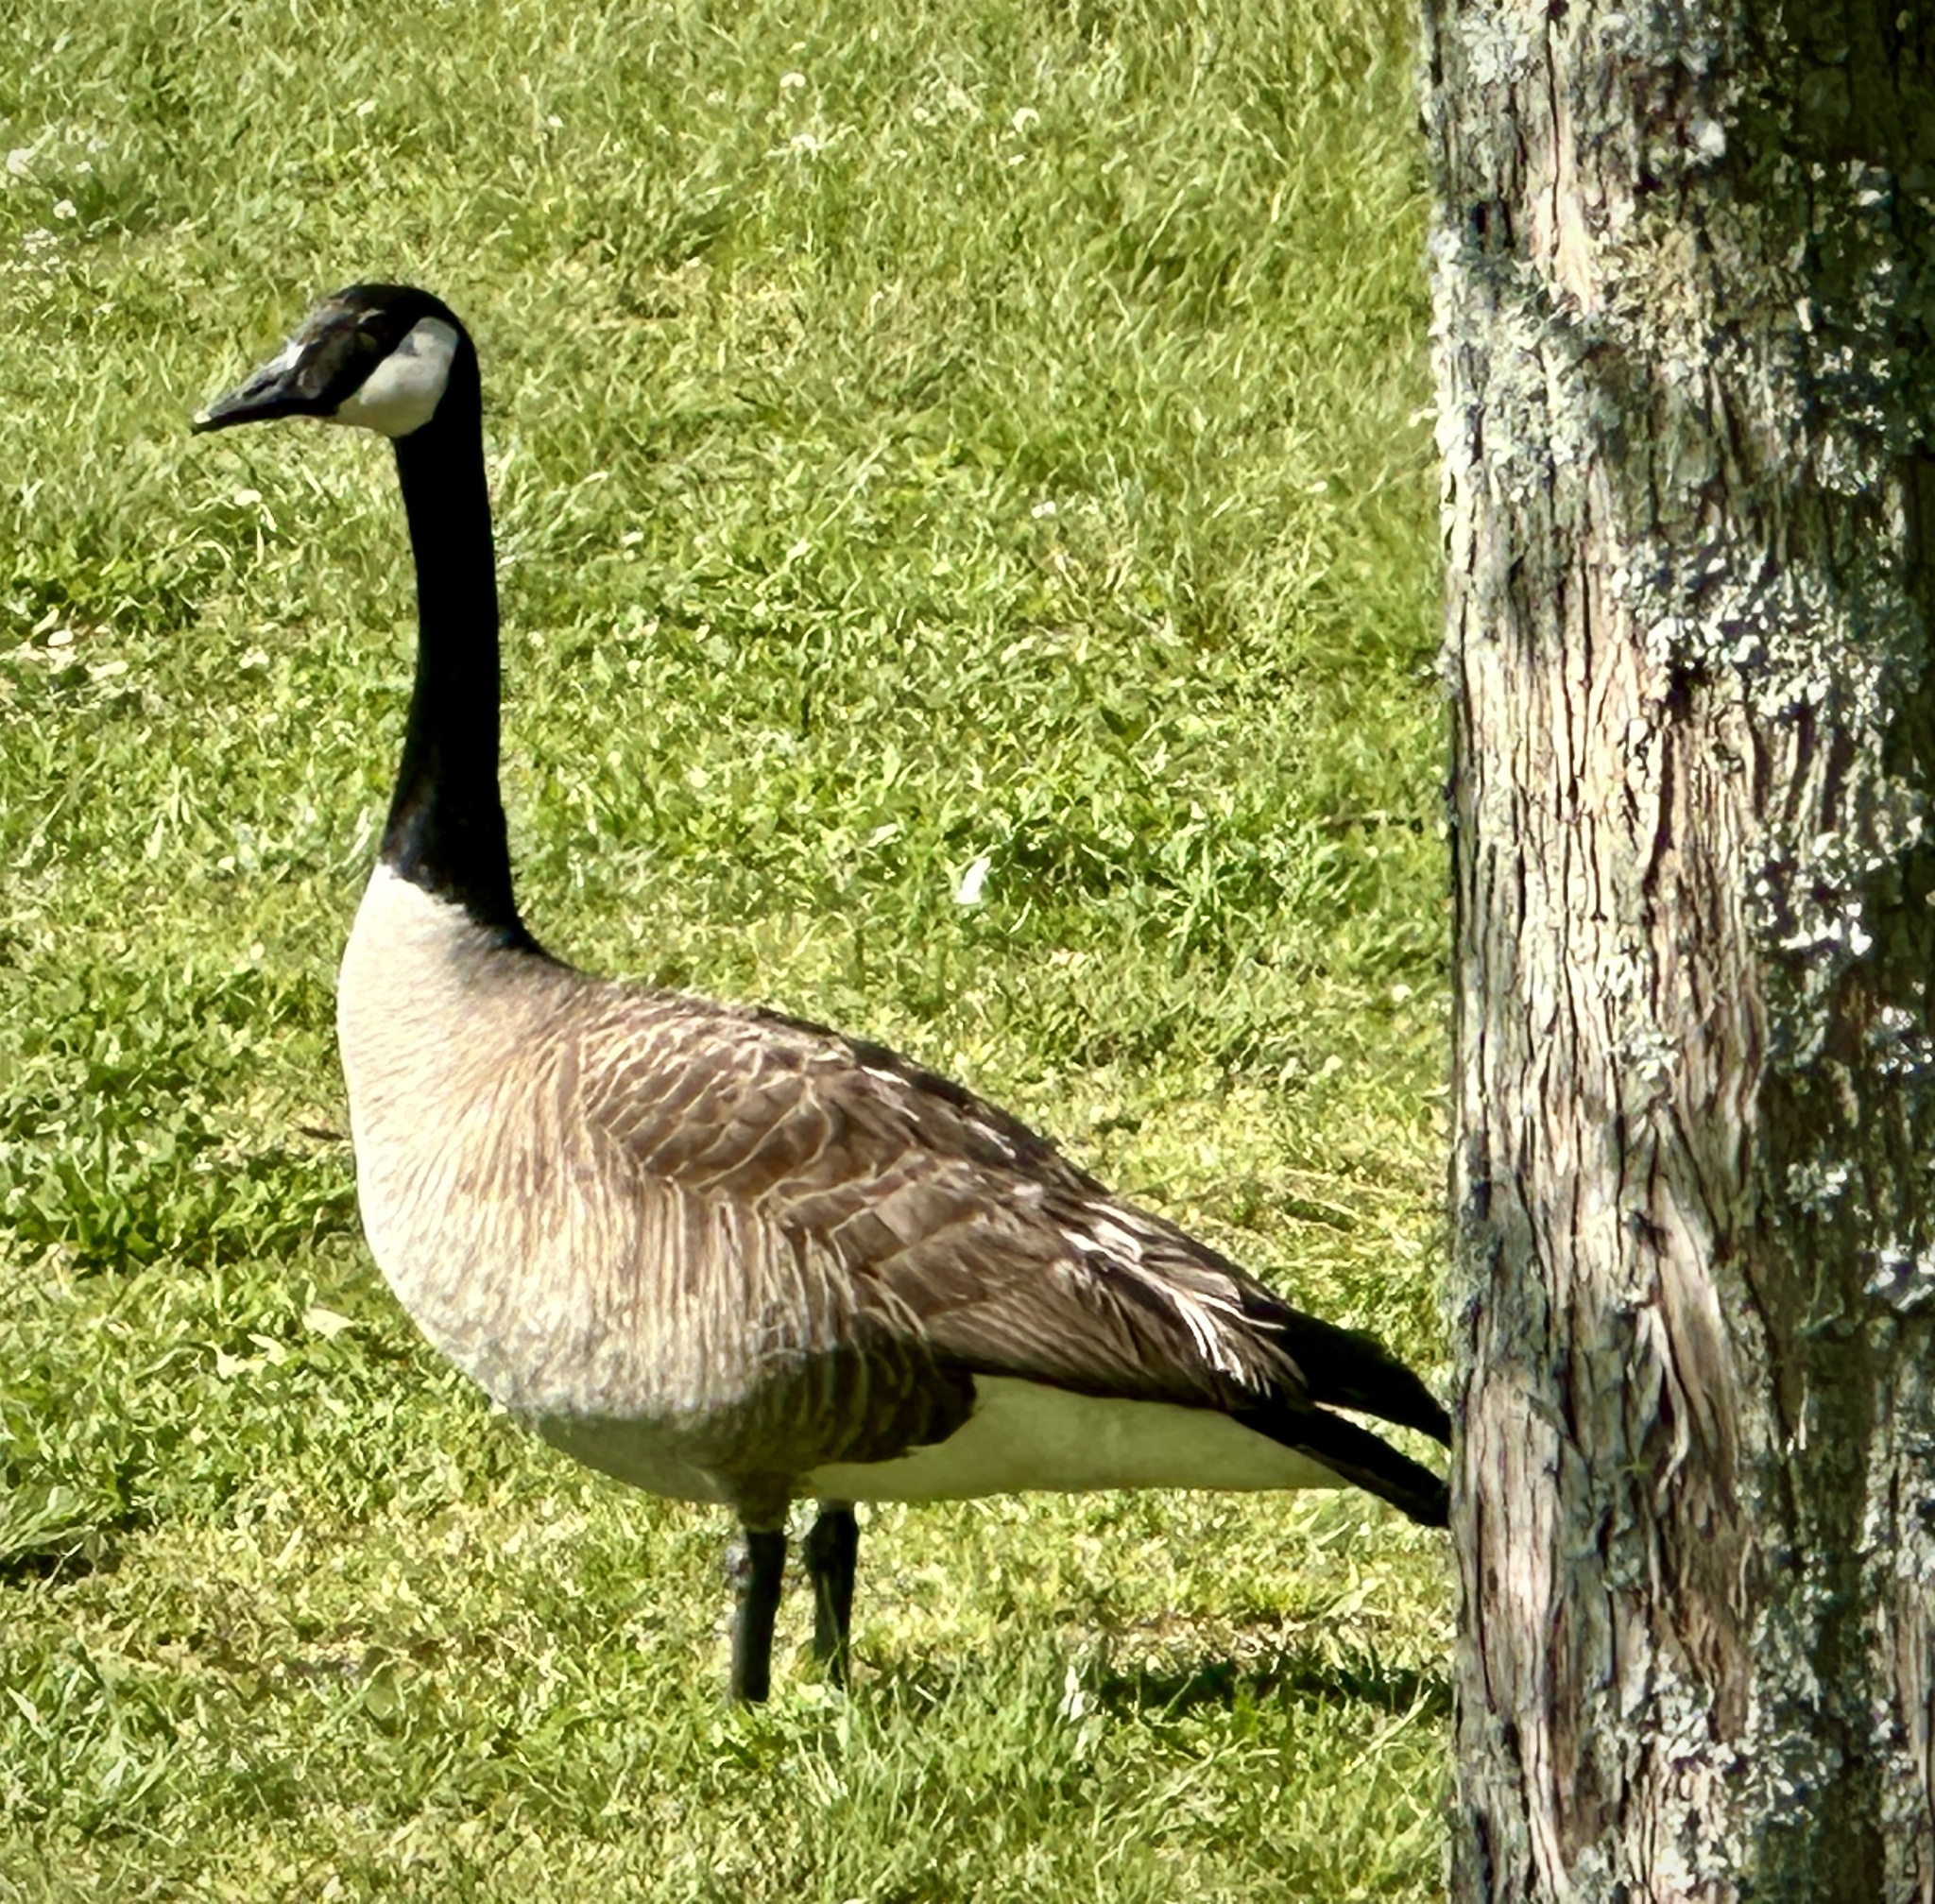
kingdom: Animalia
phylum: Chordata
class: Aves
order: Anseriformes
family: Anatidae
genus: Branta
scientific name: Branta canadensis
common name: Canada goose
